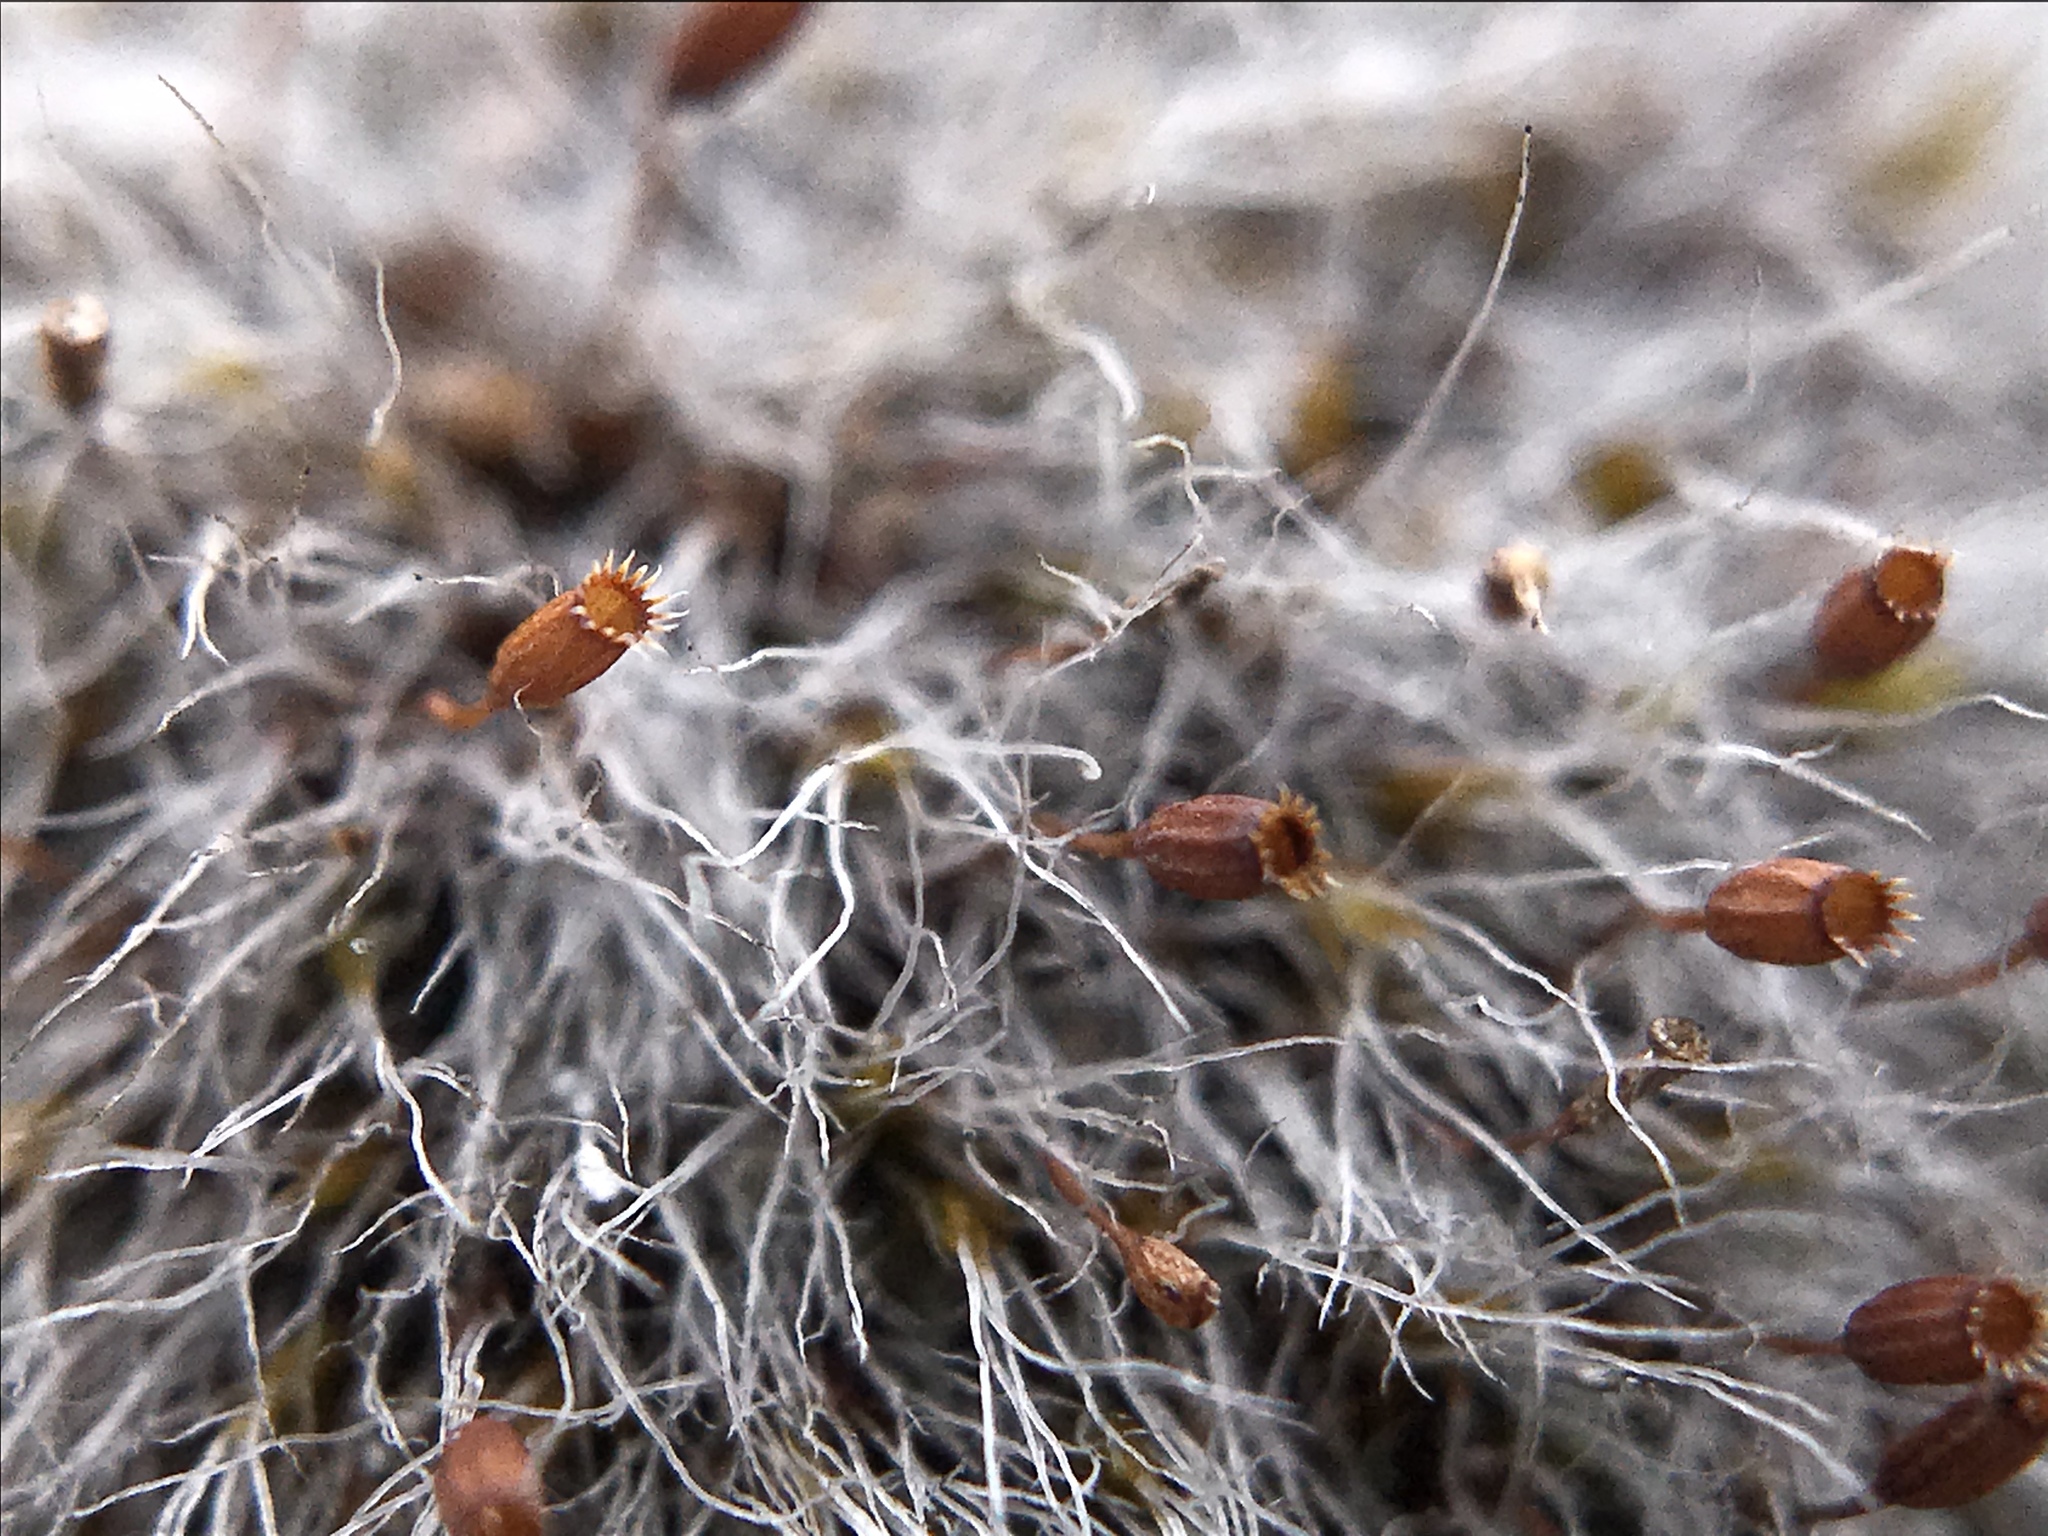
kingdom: Plantae
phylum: Bryophyta
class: Bryopsida
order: Grimmiales
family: Grimmiaceae
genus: Grimmia
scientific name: Grimmia pulvinata
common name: Grey-cushioned grimmia
